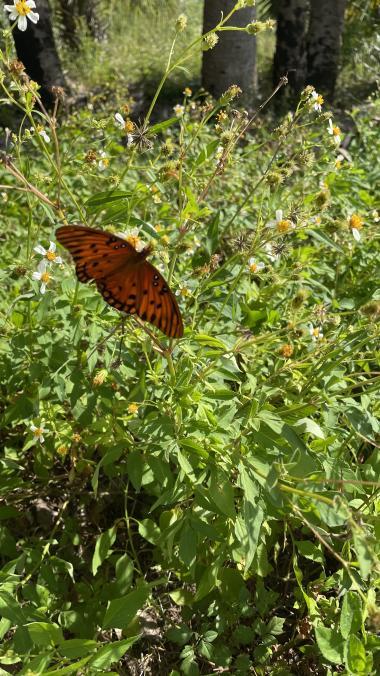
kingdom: Animalia
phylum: Arthropoda
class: Insecta
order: Lepidoptera
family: Nymphalidae
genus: Dione
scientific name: Dione vanillae
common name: Gulf fritillary
